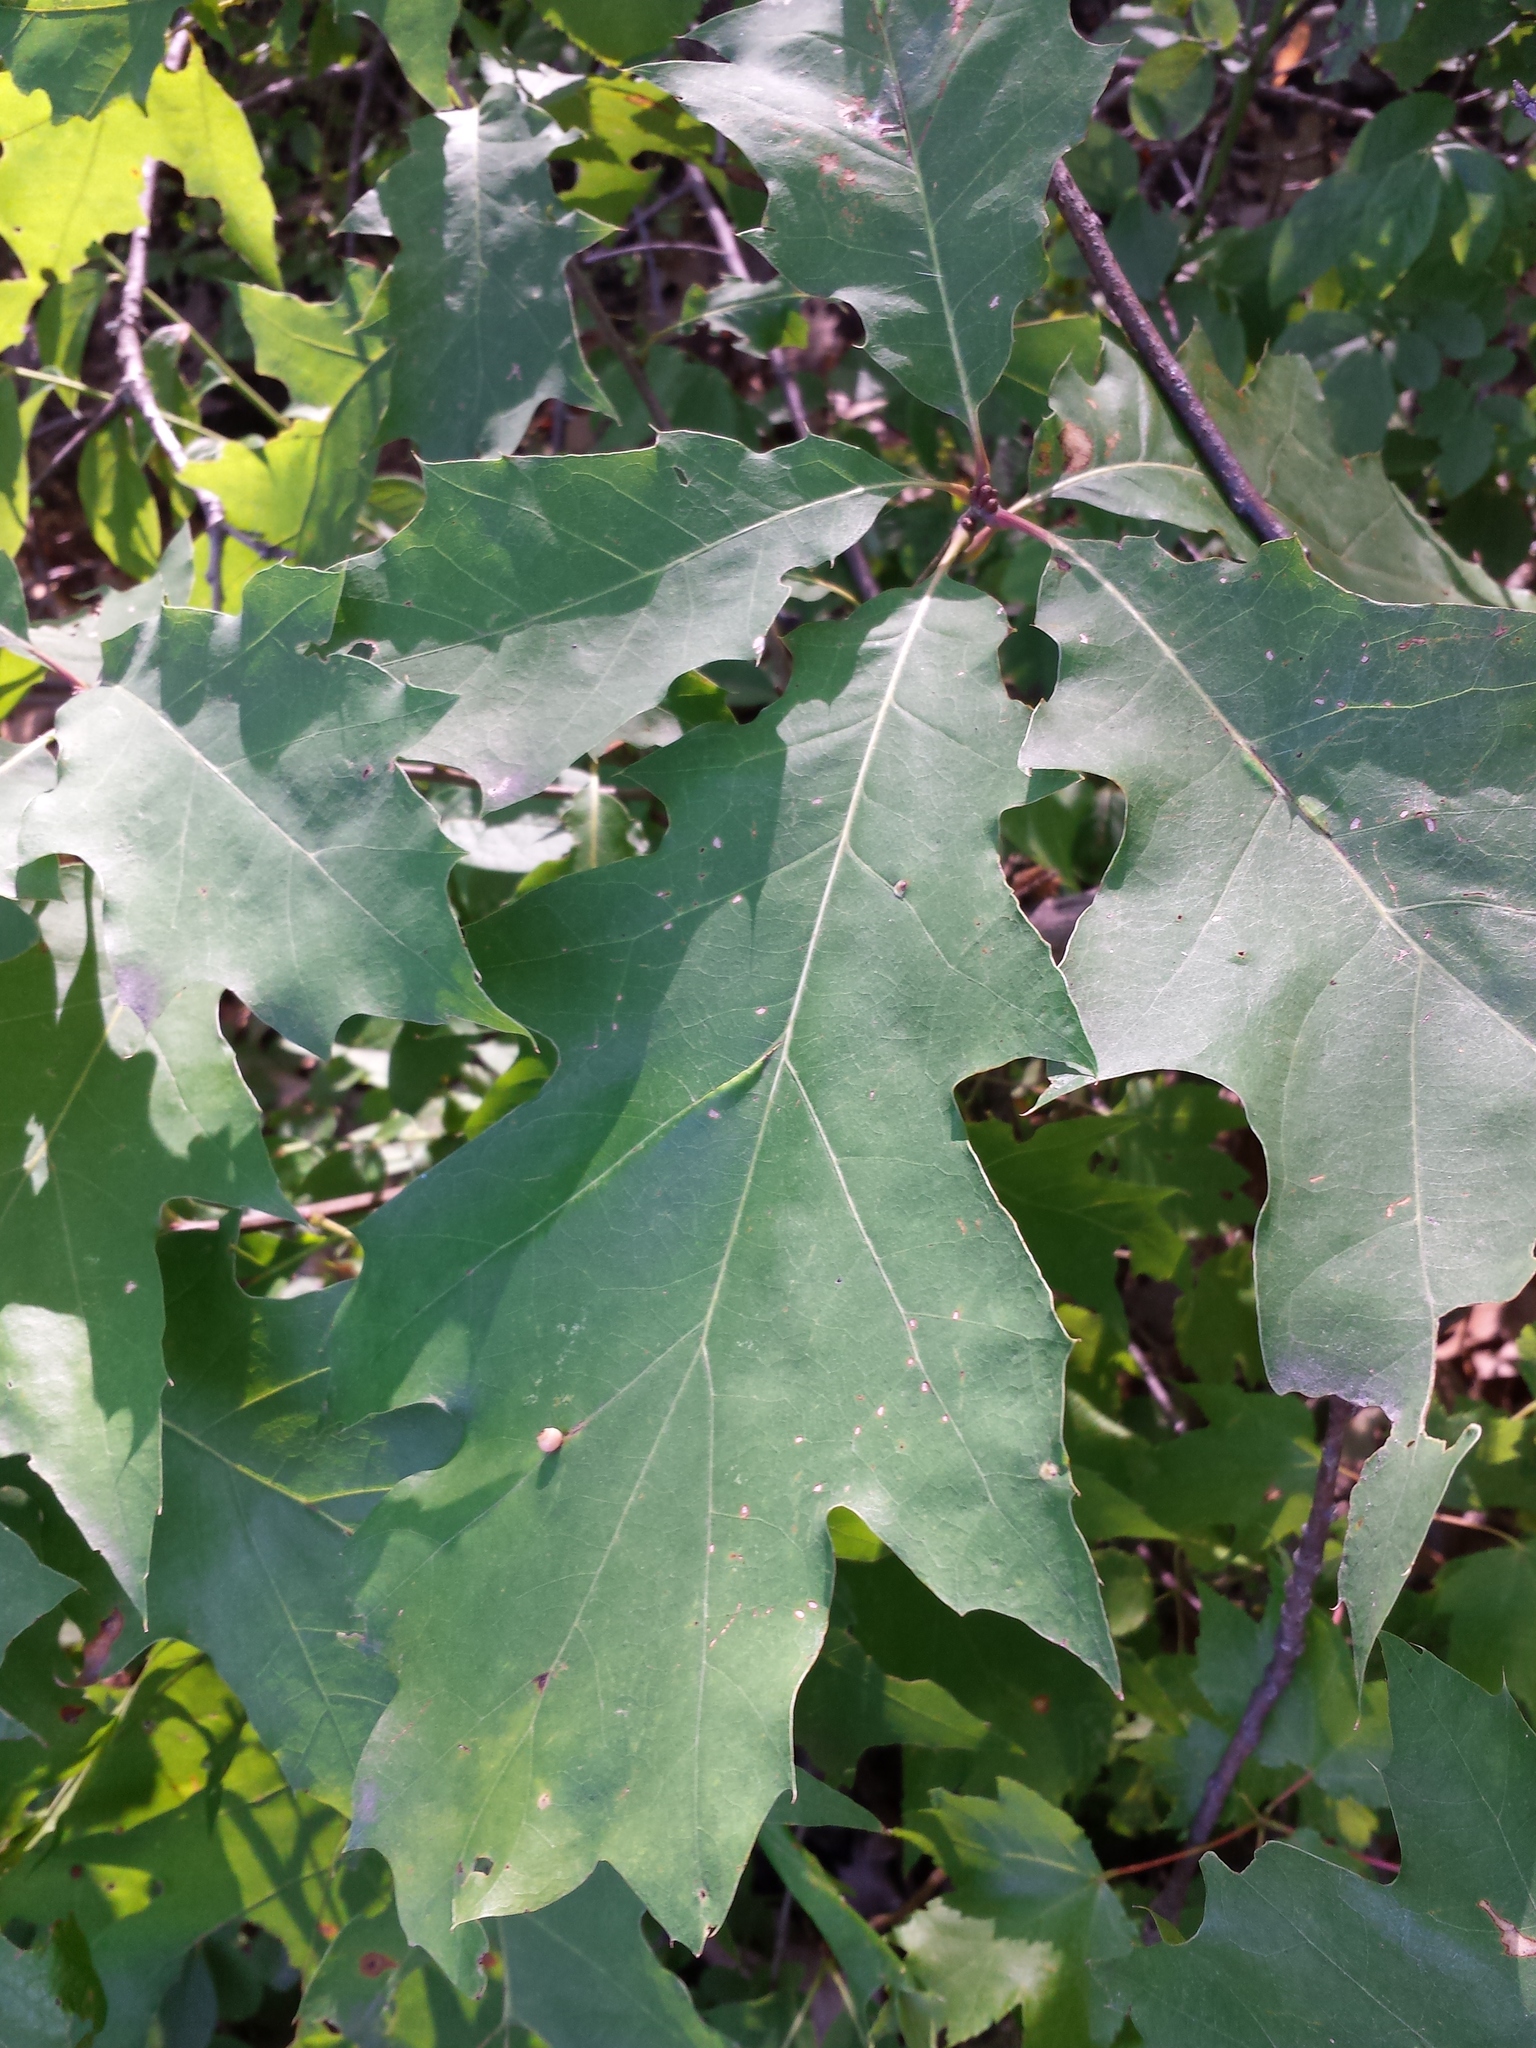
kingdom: Plantae
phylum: Tracheophyta
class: Magnoliopsida
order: Fagales
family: Fagaceae
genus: Quercus
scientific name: Quercus rubra
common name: Red oak
